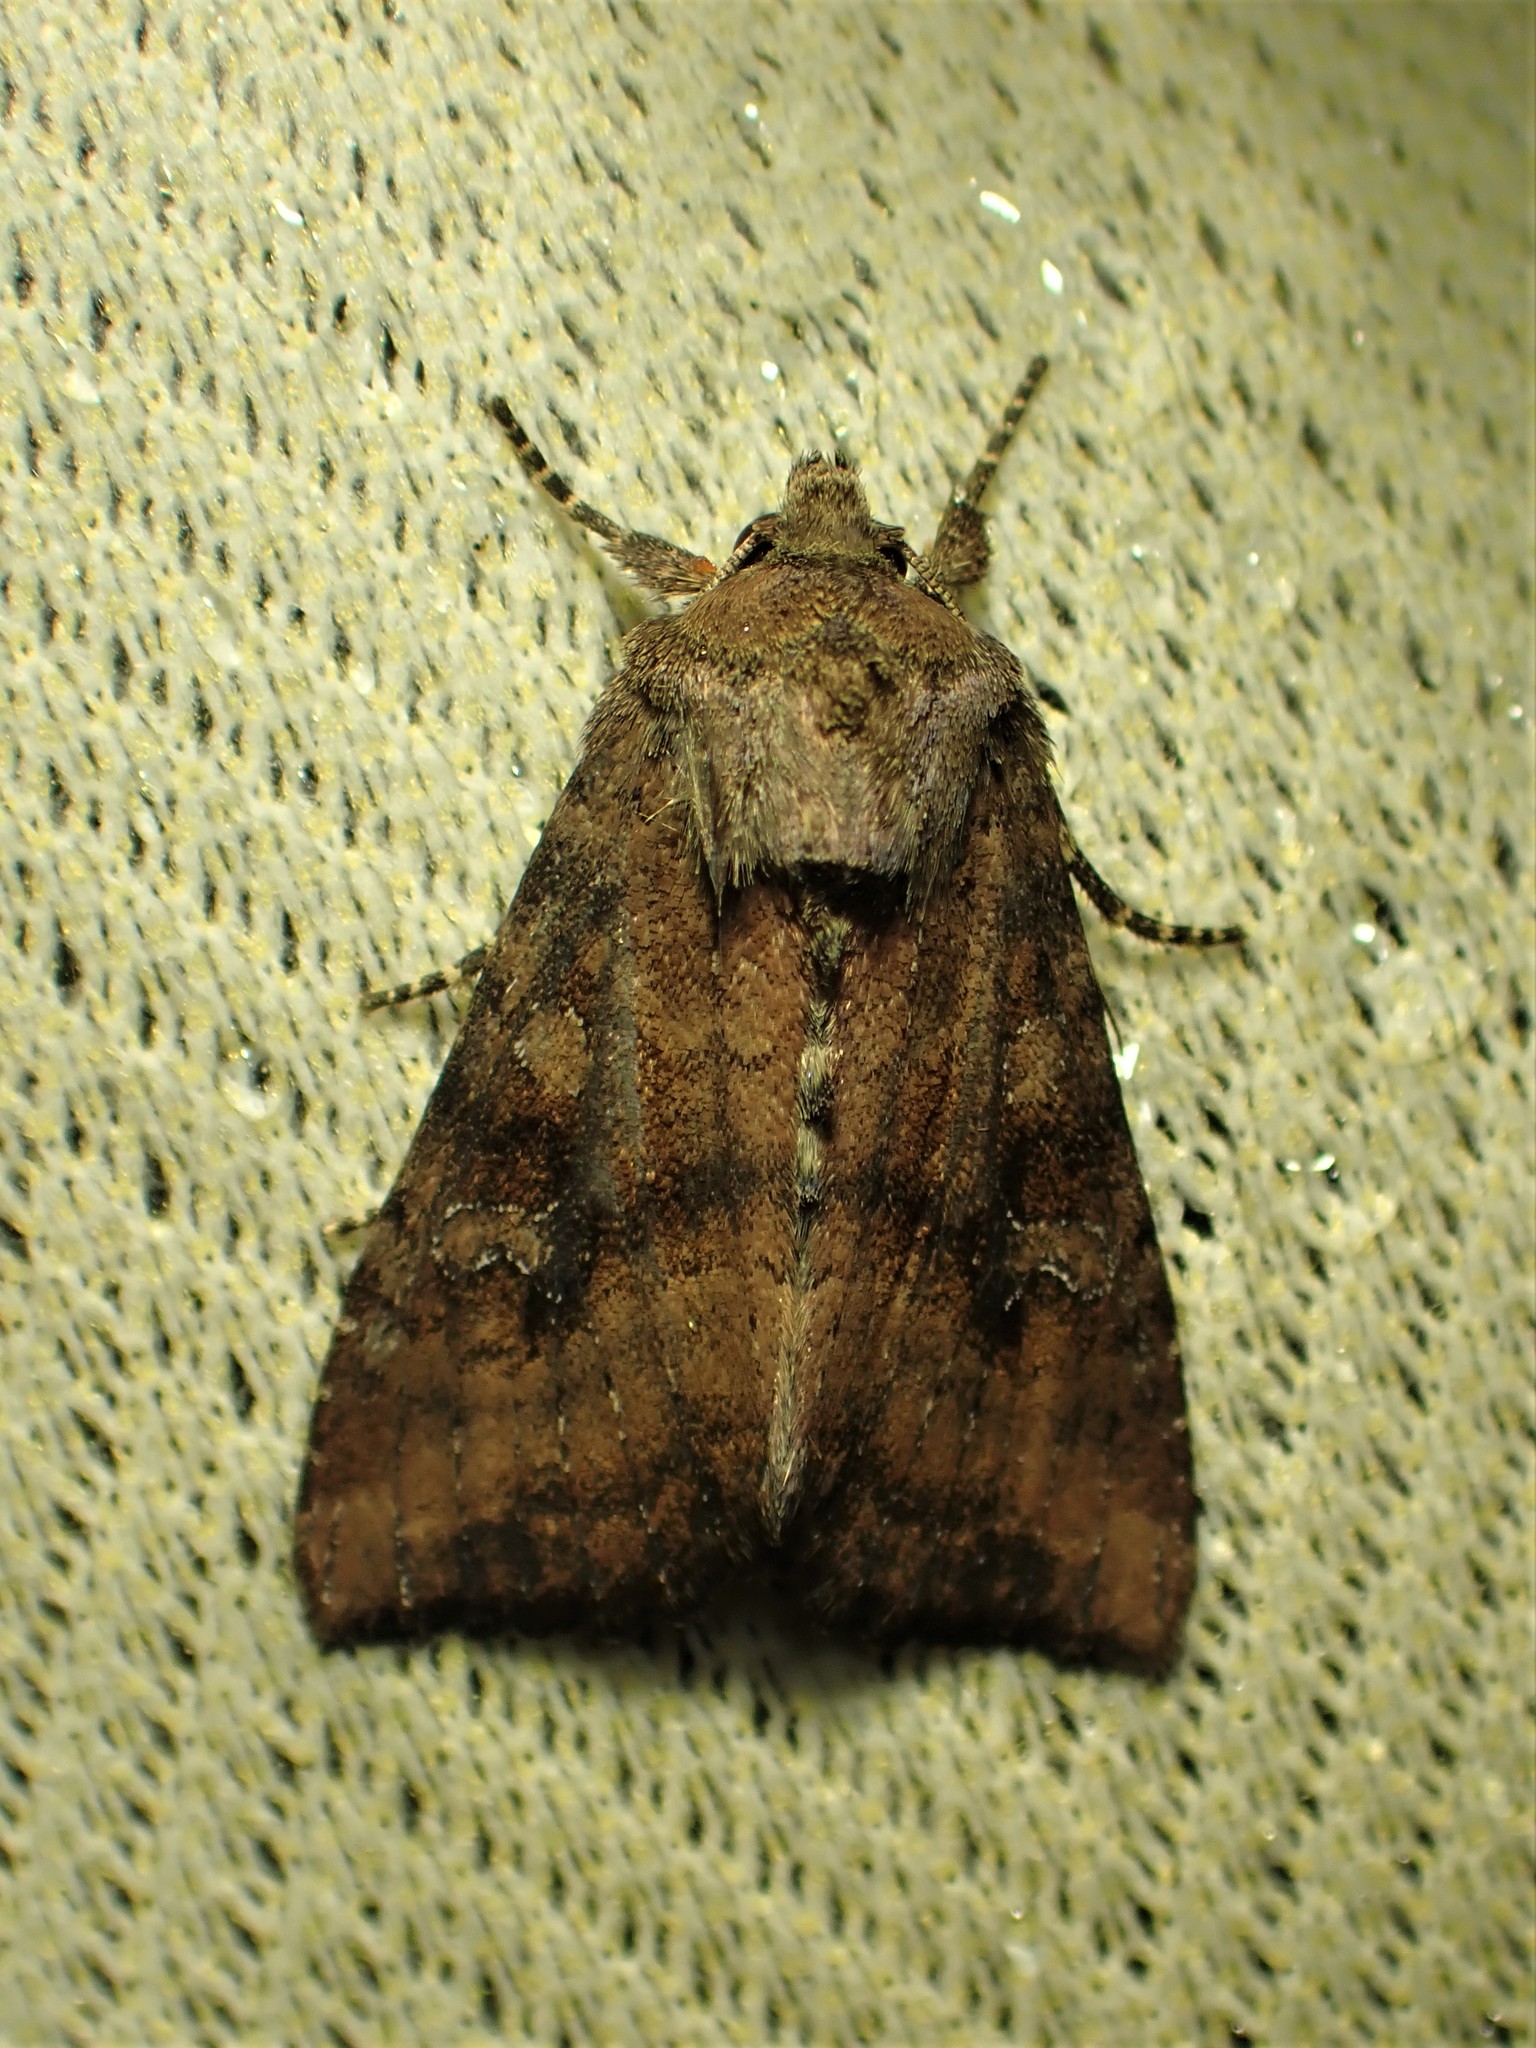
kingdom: Animalia
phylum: Arthropoda
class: Insecta
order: Lepidoptera
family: Noctuidae
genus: Loscopia
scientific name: Loscopia velata
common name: Veiled ear moth
